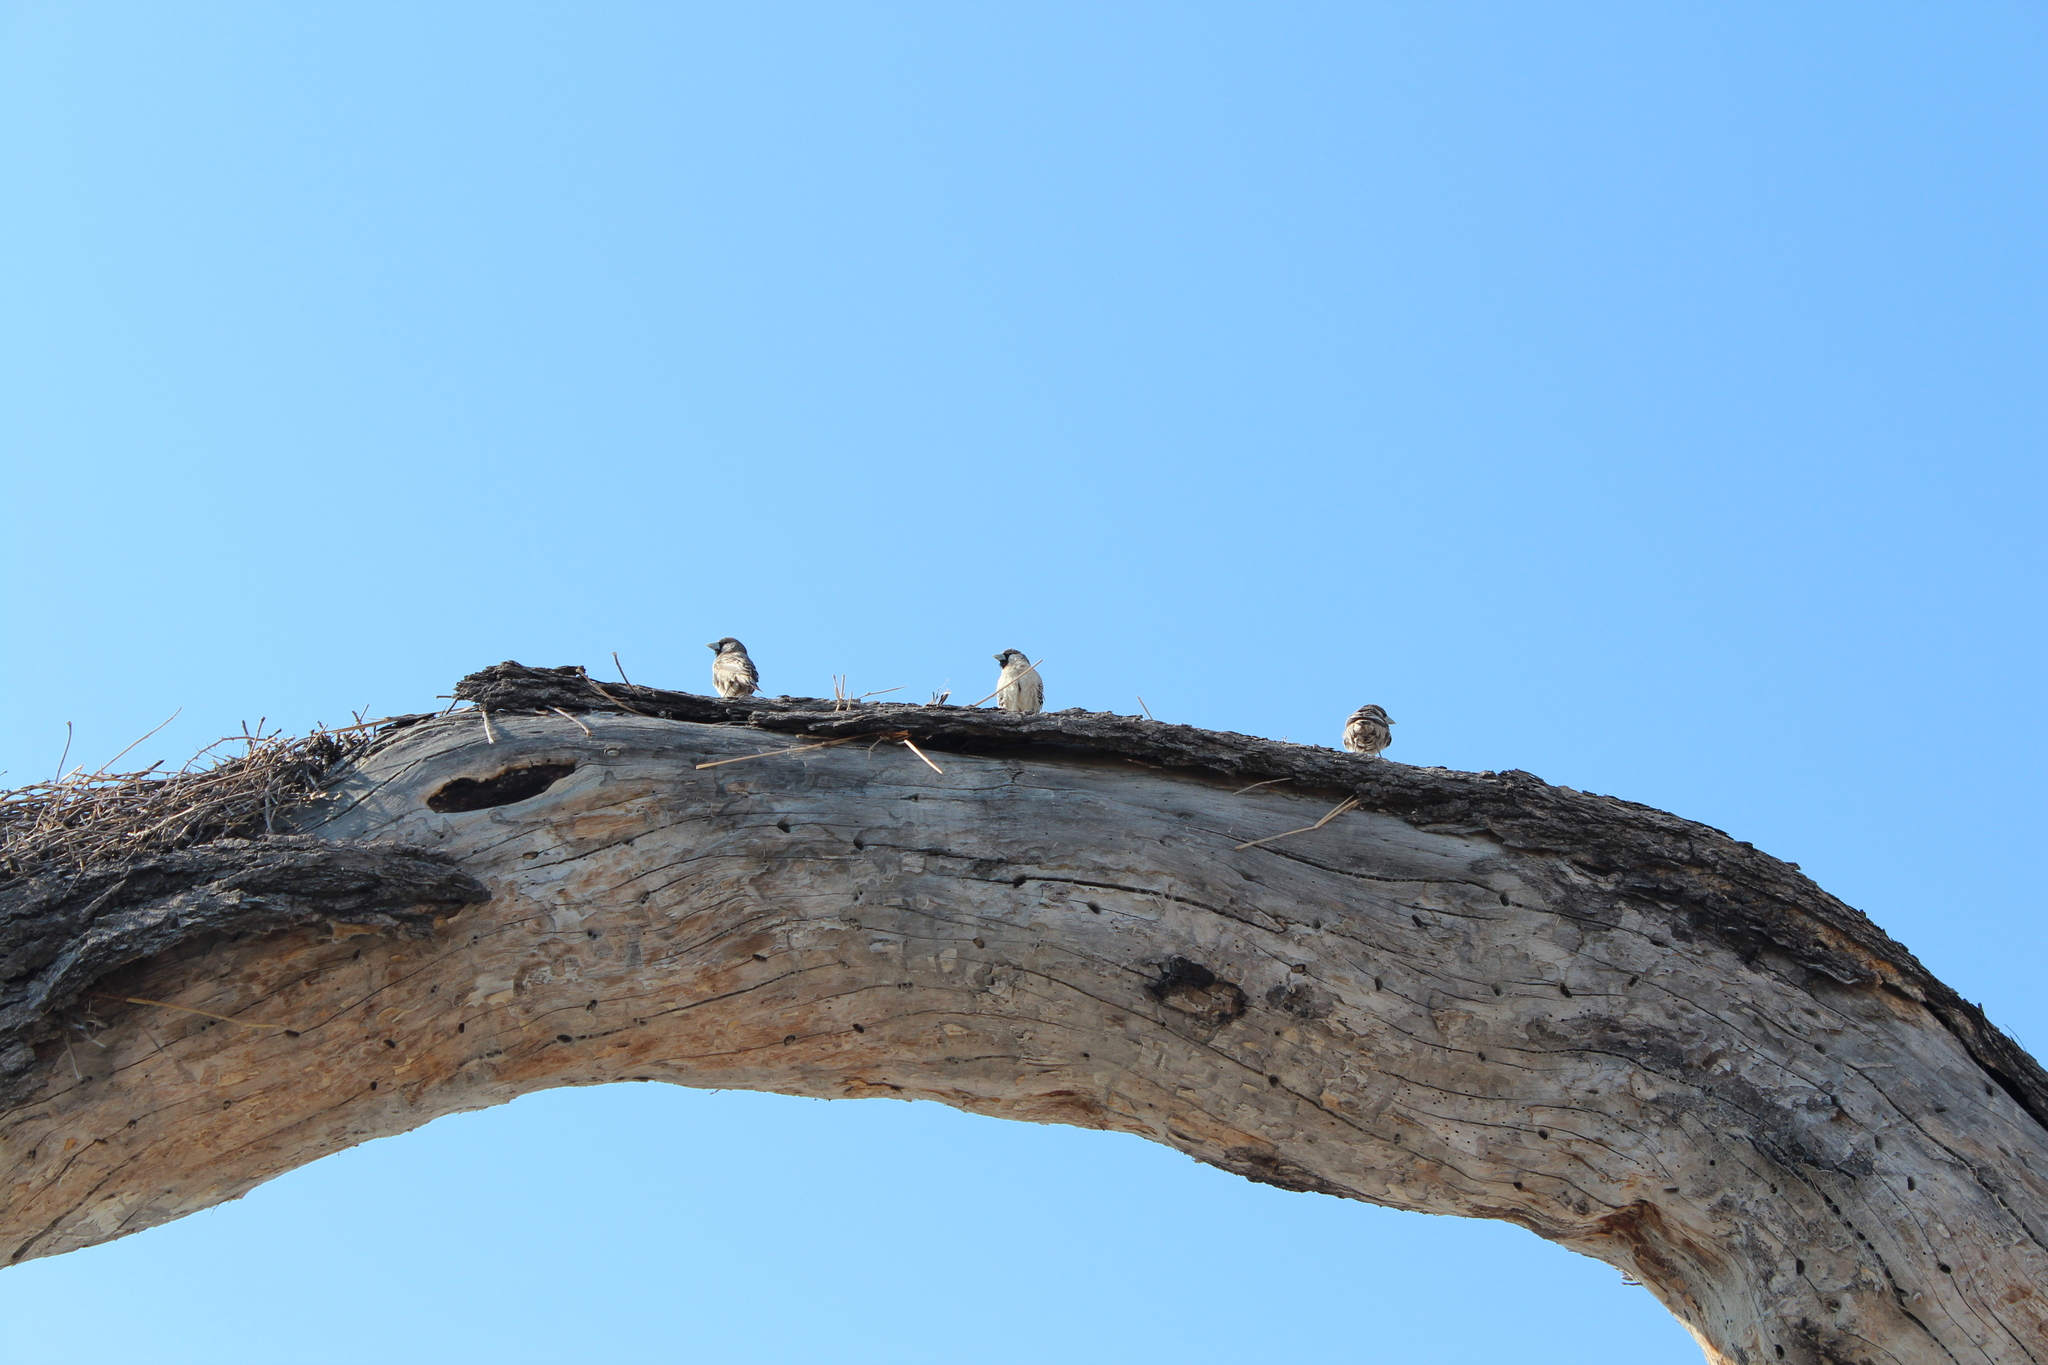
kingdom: Animalia
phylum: Chordata
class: Aves
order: Passeriformes
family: Passeridae
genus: Philetairus
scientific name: Philetairus socius
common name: Sociable weaver
